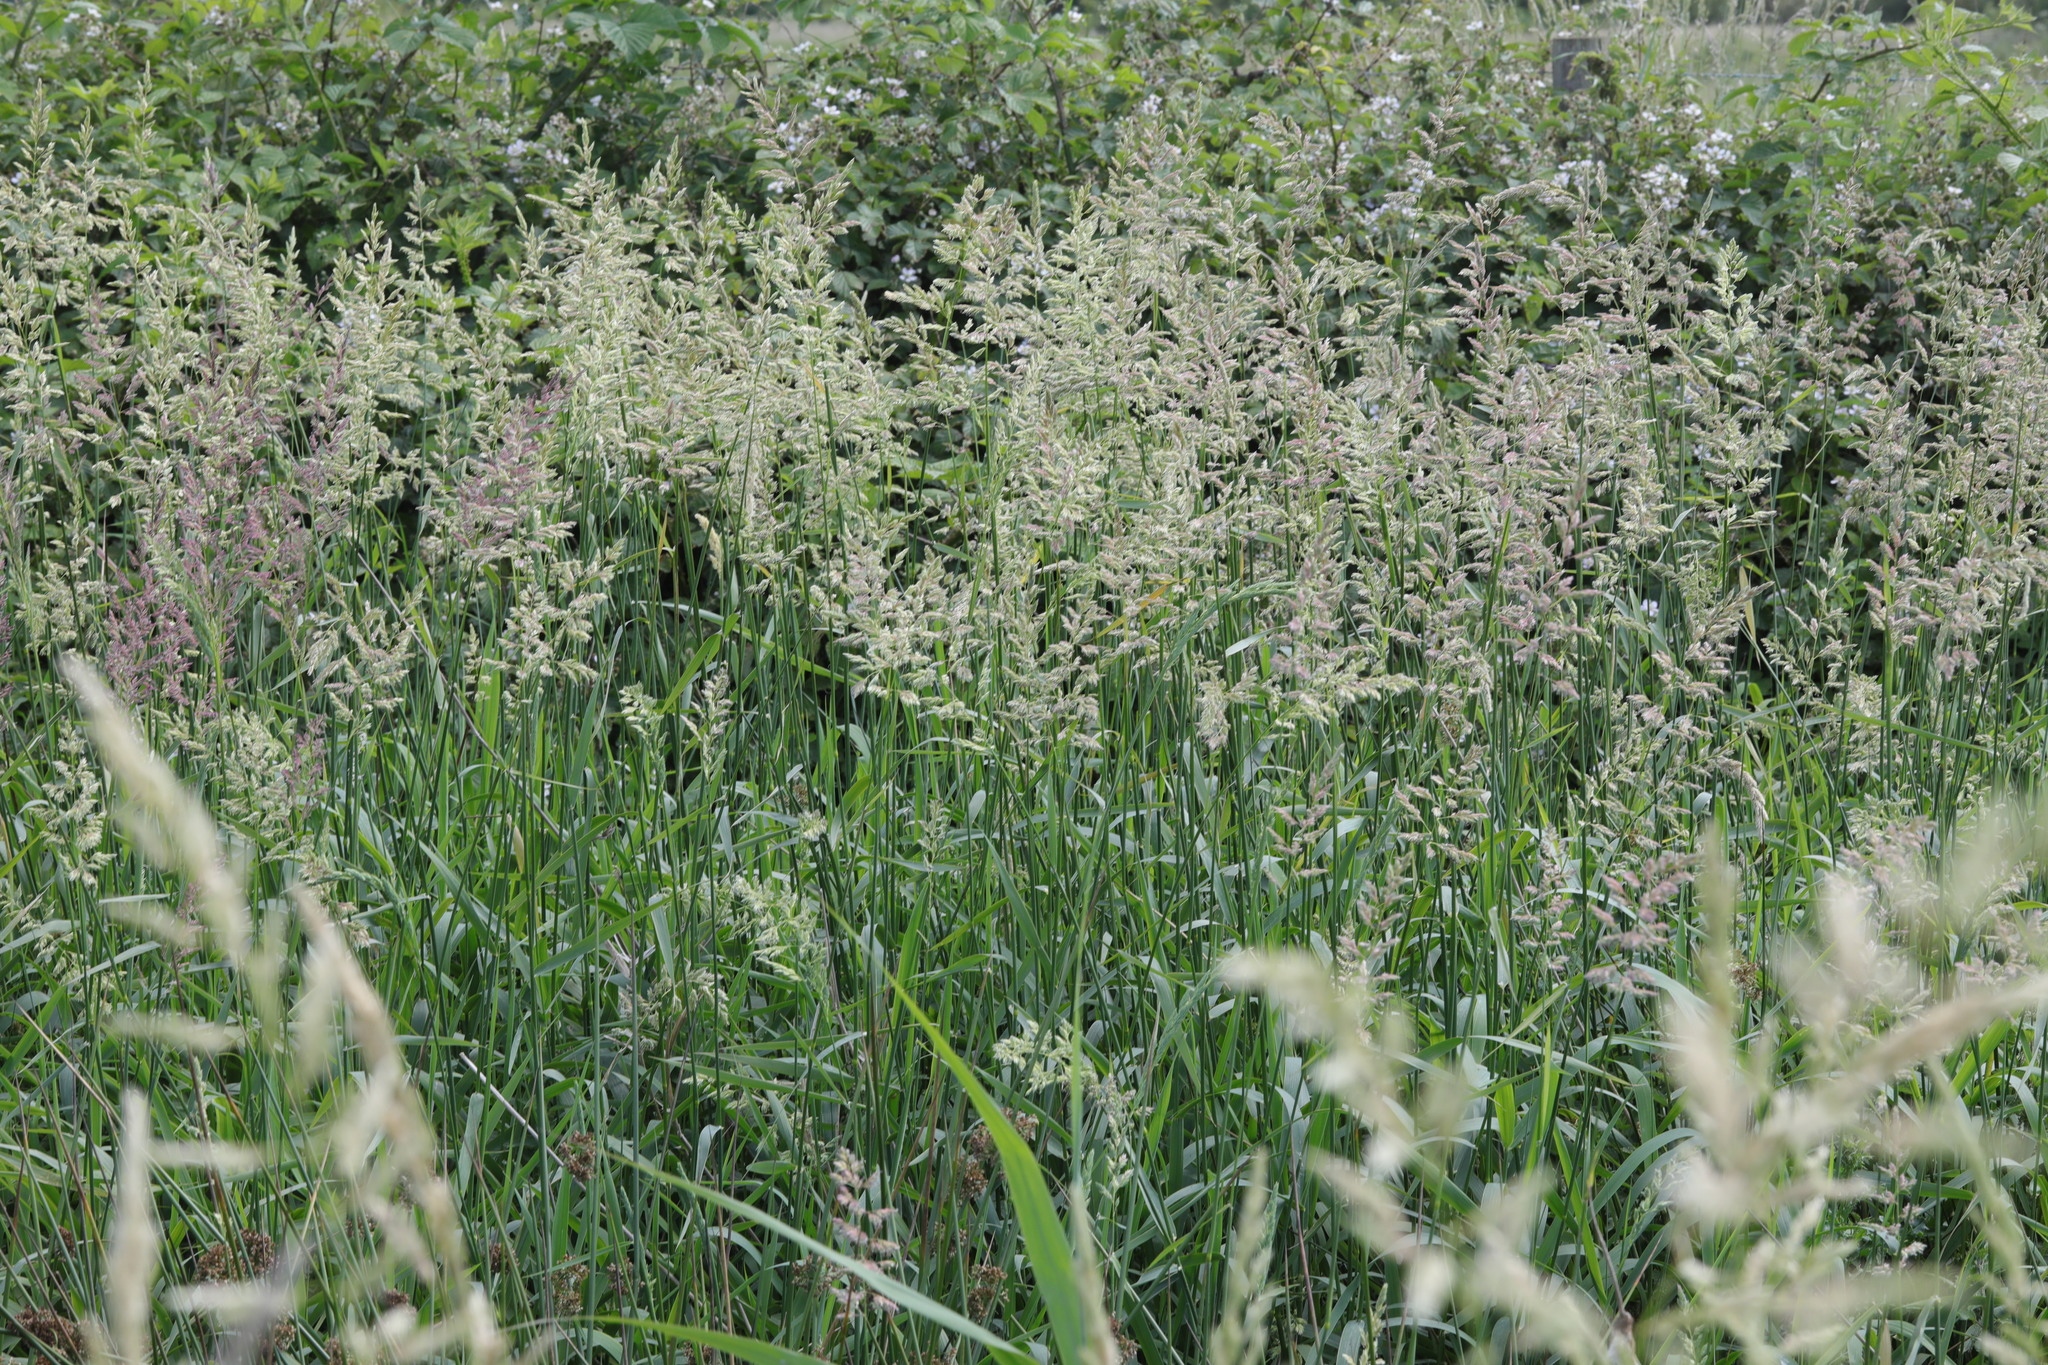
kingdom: Plantae
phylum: Tracheophyta
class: Liliopsida
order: Poales
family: Poaceae
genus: Phalaris
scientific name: Phalaris arundinacea
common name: Reed canary-grass
